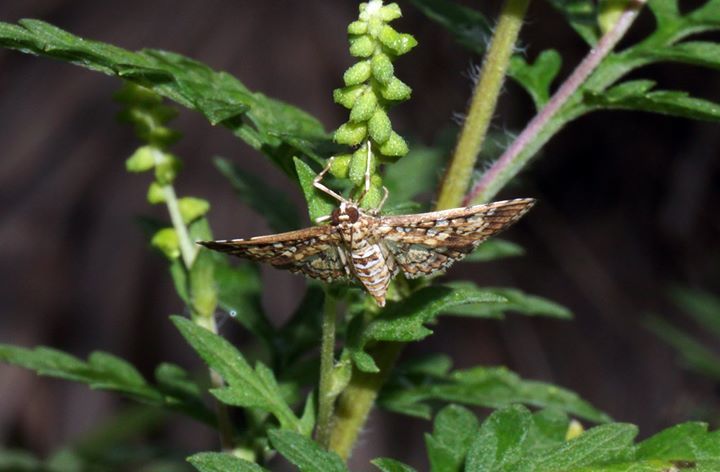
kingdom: Animalia
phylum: Arthropoda
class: Insecta
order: Lepidoptera
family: Crambidae
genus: Samea
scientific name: Samea ecclesialis
